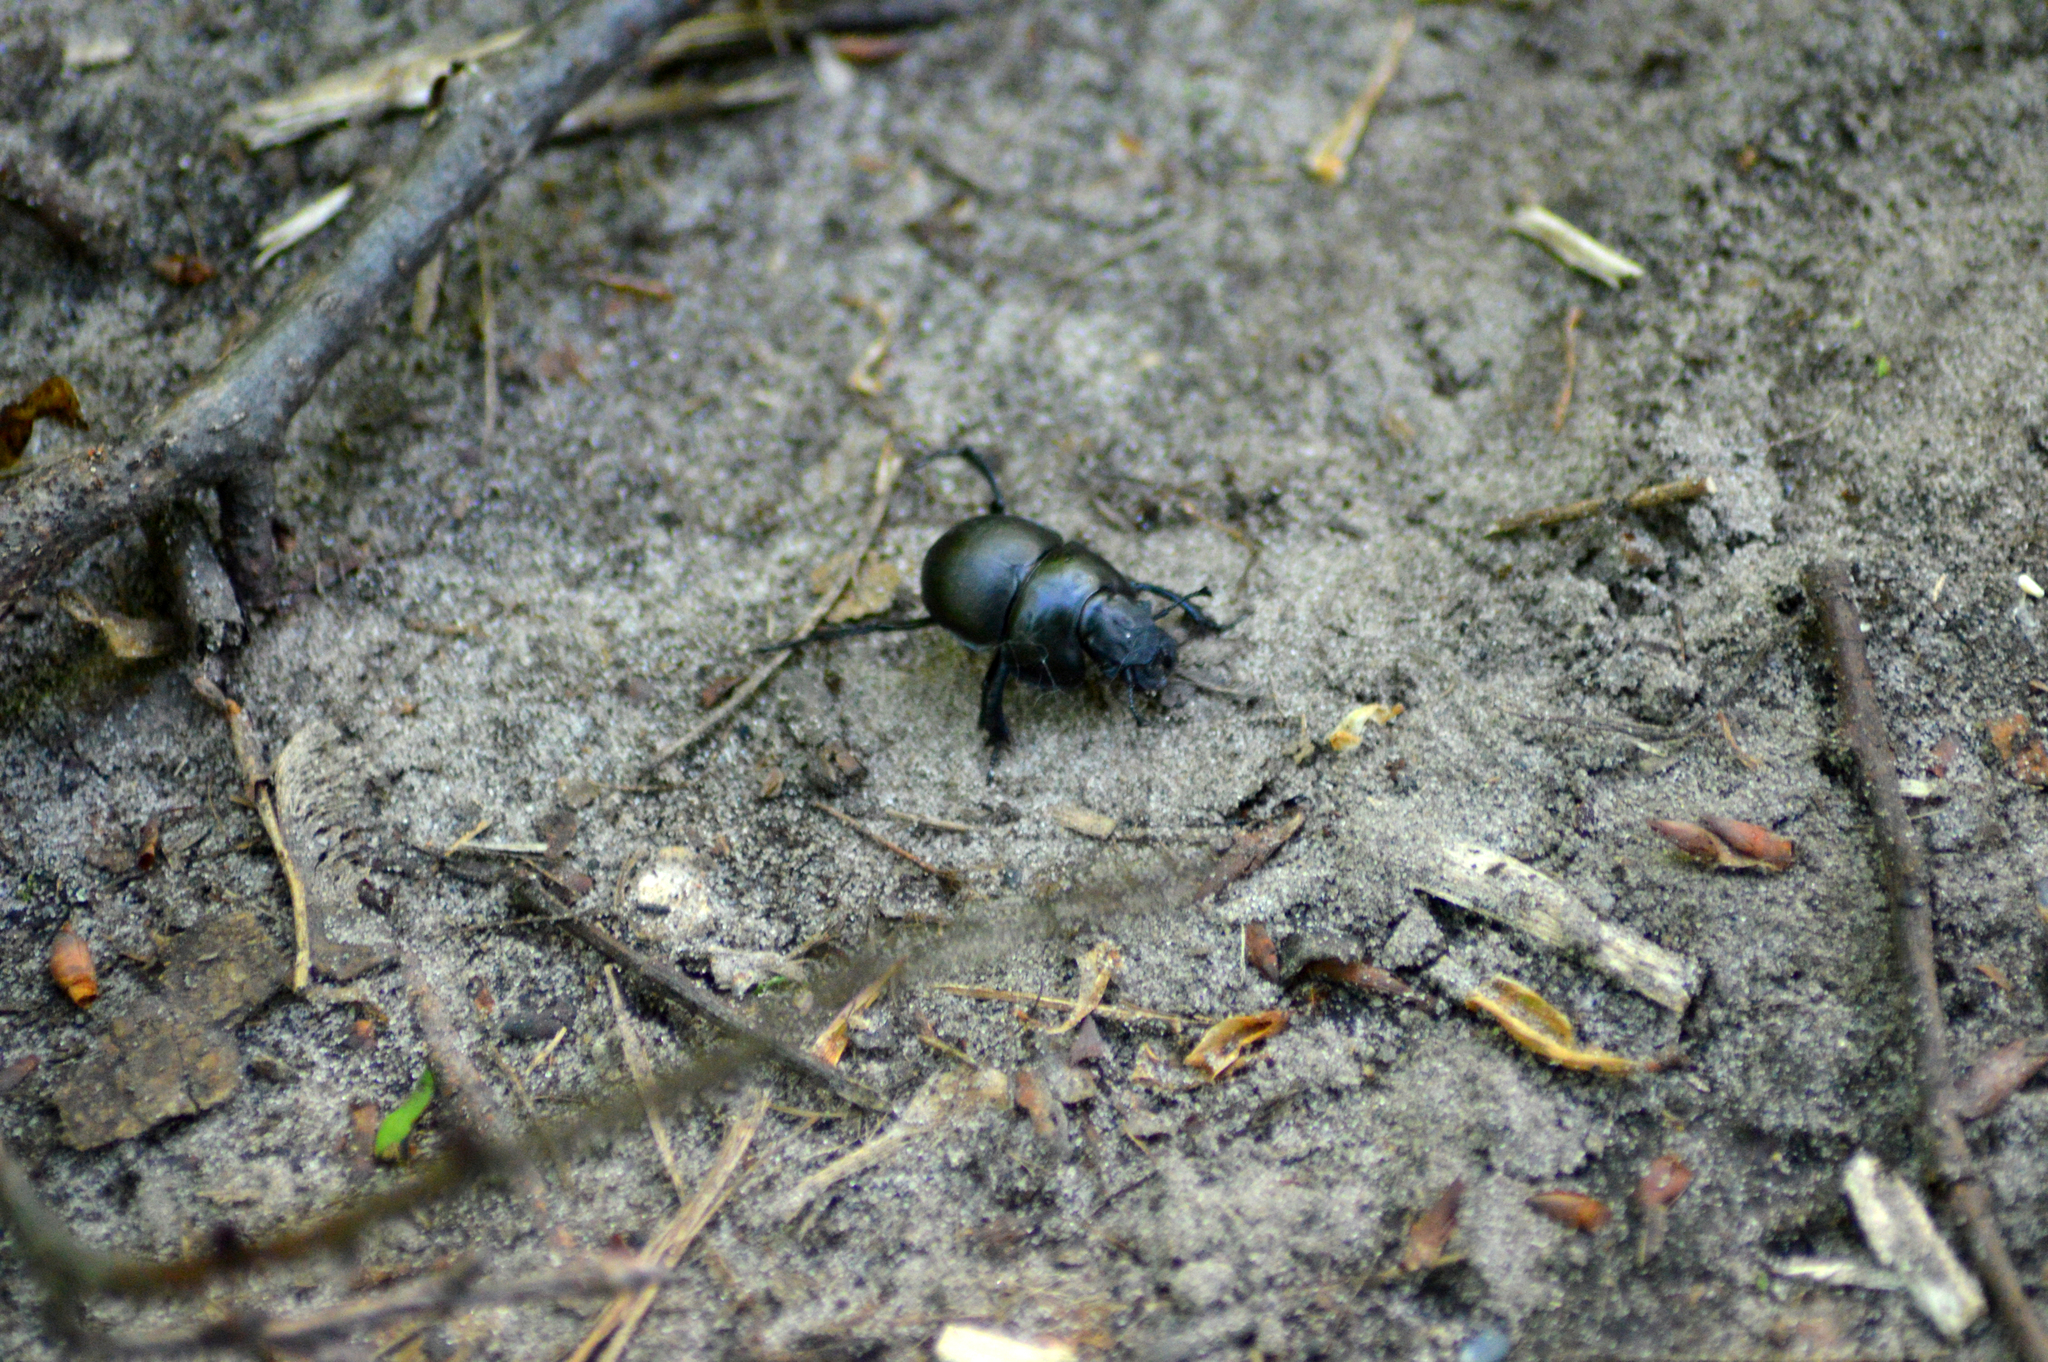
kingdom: Animalia
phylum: Arthropoda
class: Insecta
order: Coleoptera
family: Geotrupidae
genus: Lethrus
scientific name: Lethrus apterus
